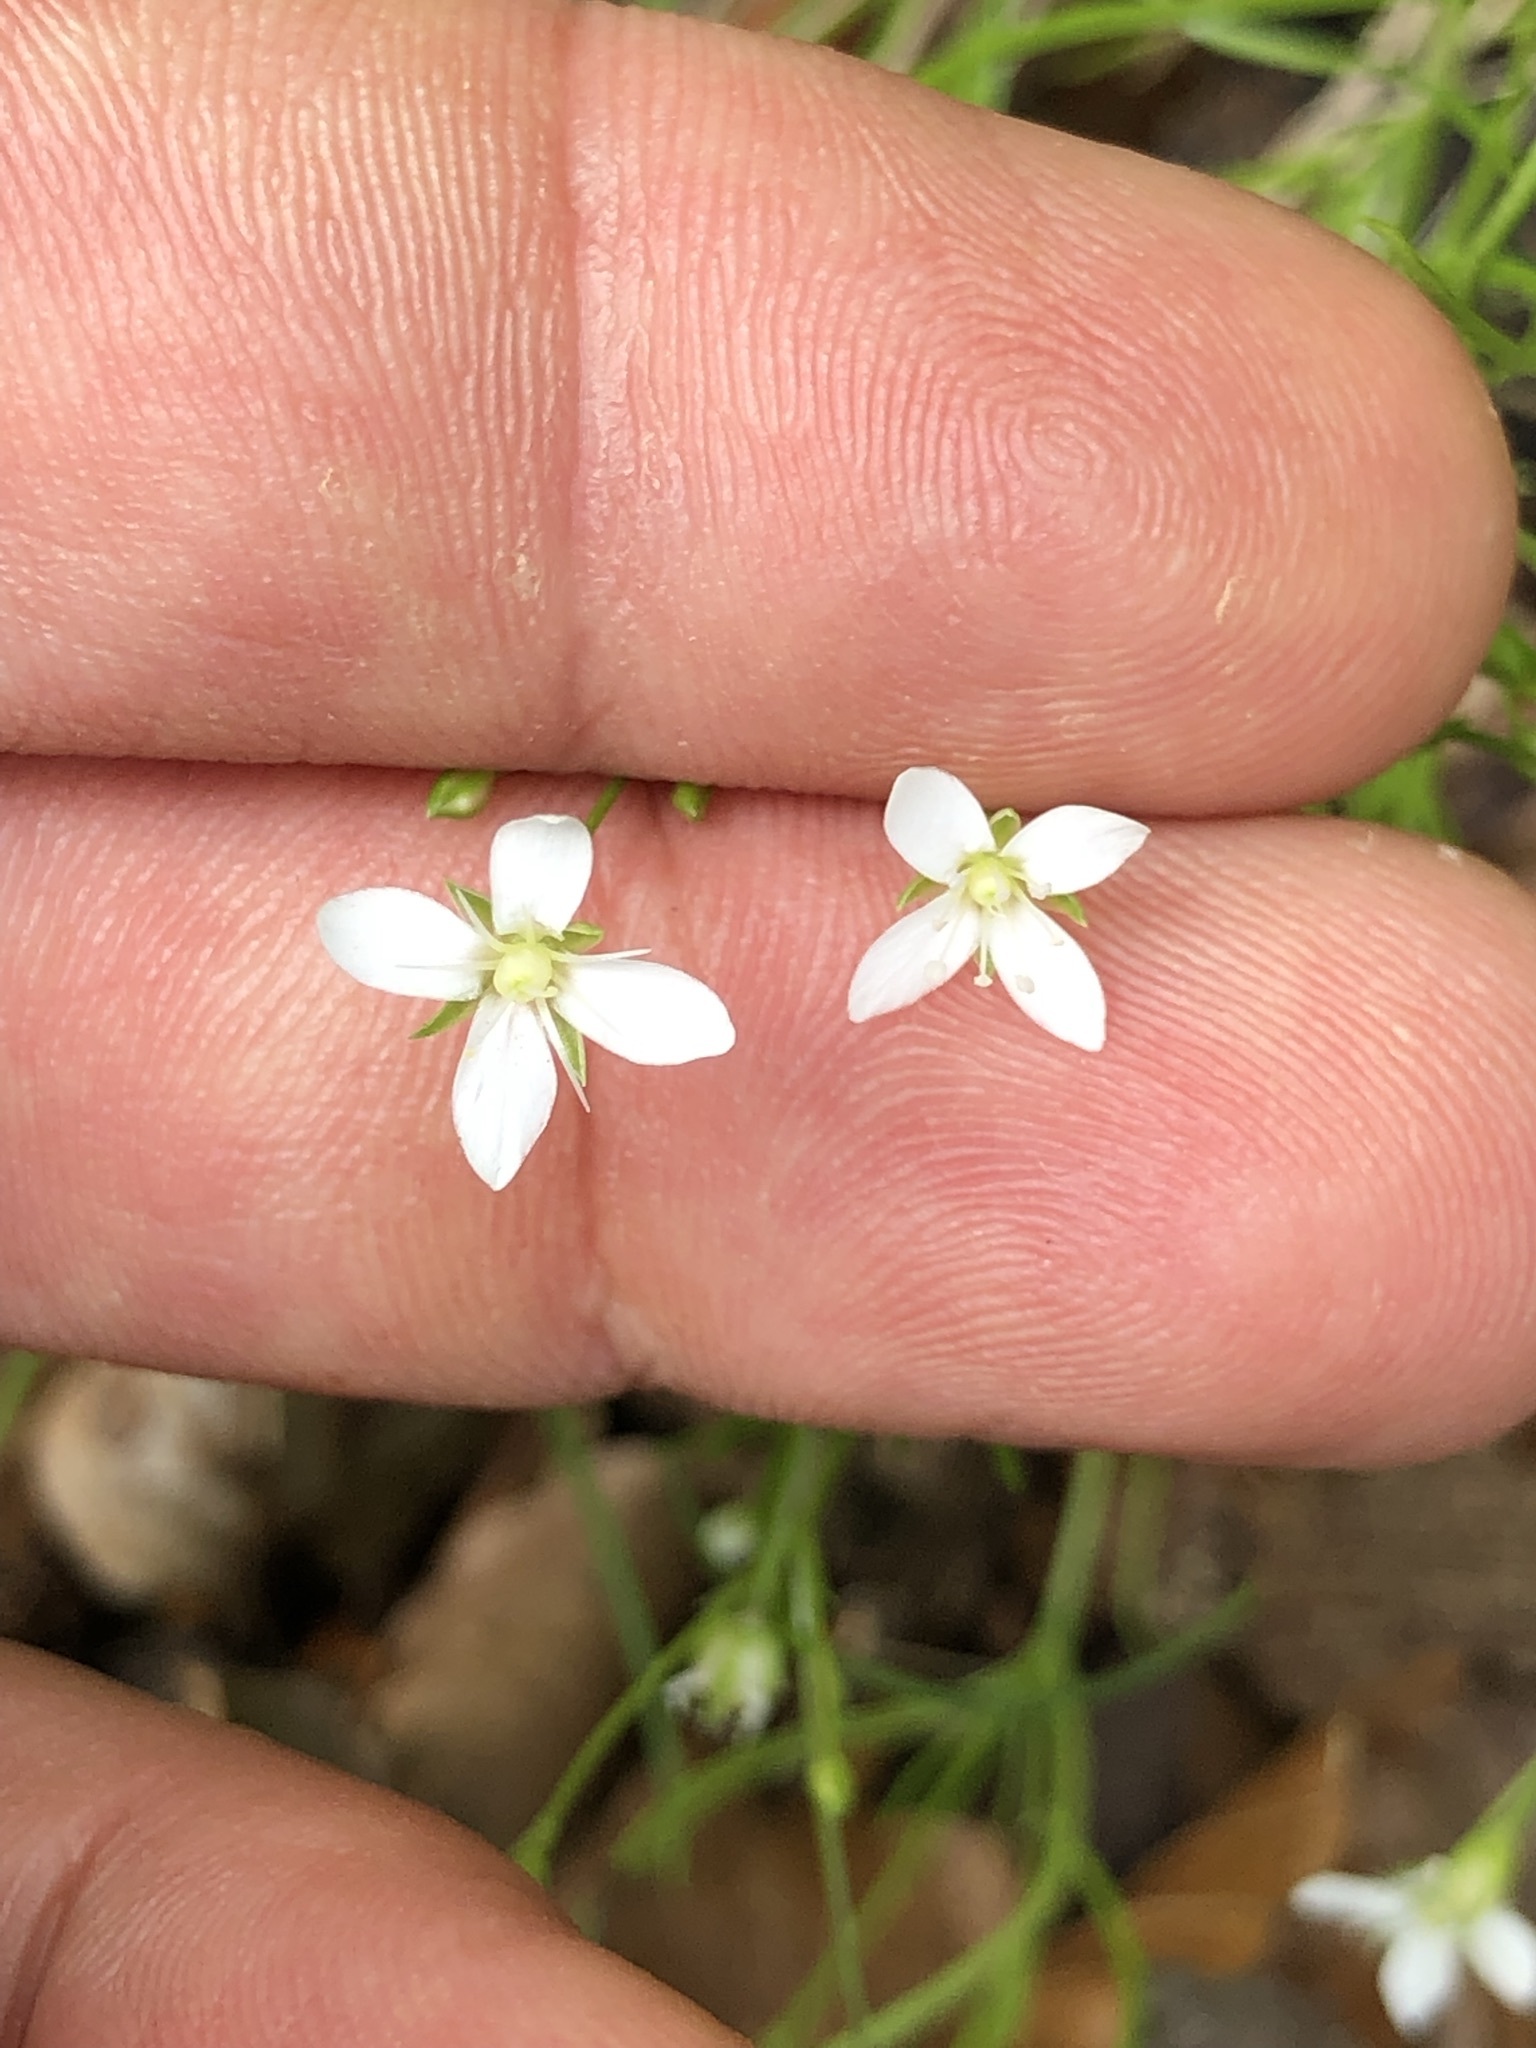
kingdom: Plantae
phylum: Tracheophyta
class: Magnoliopsida
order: Caryophyllales
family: Caryophyllaceae
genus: Moehringia
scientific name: Moehringia muscosa
